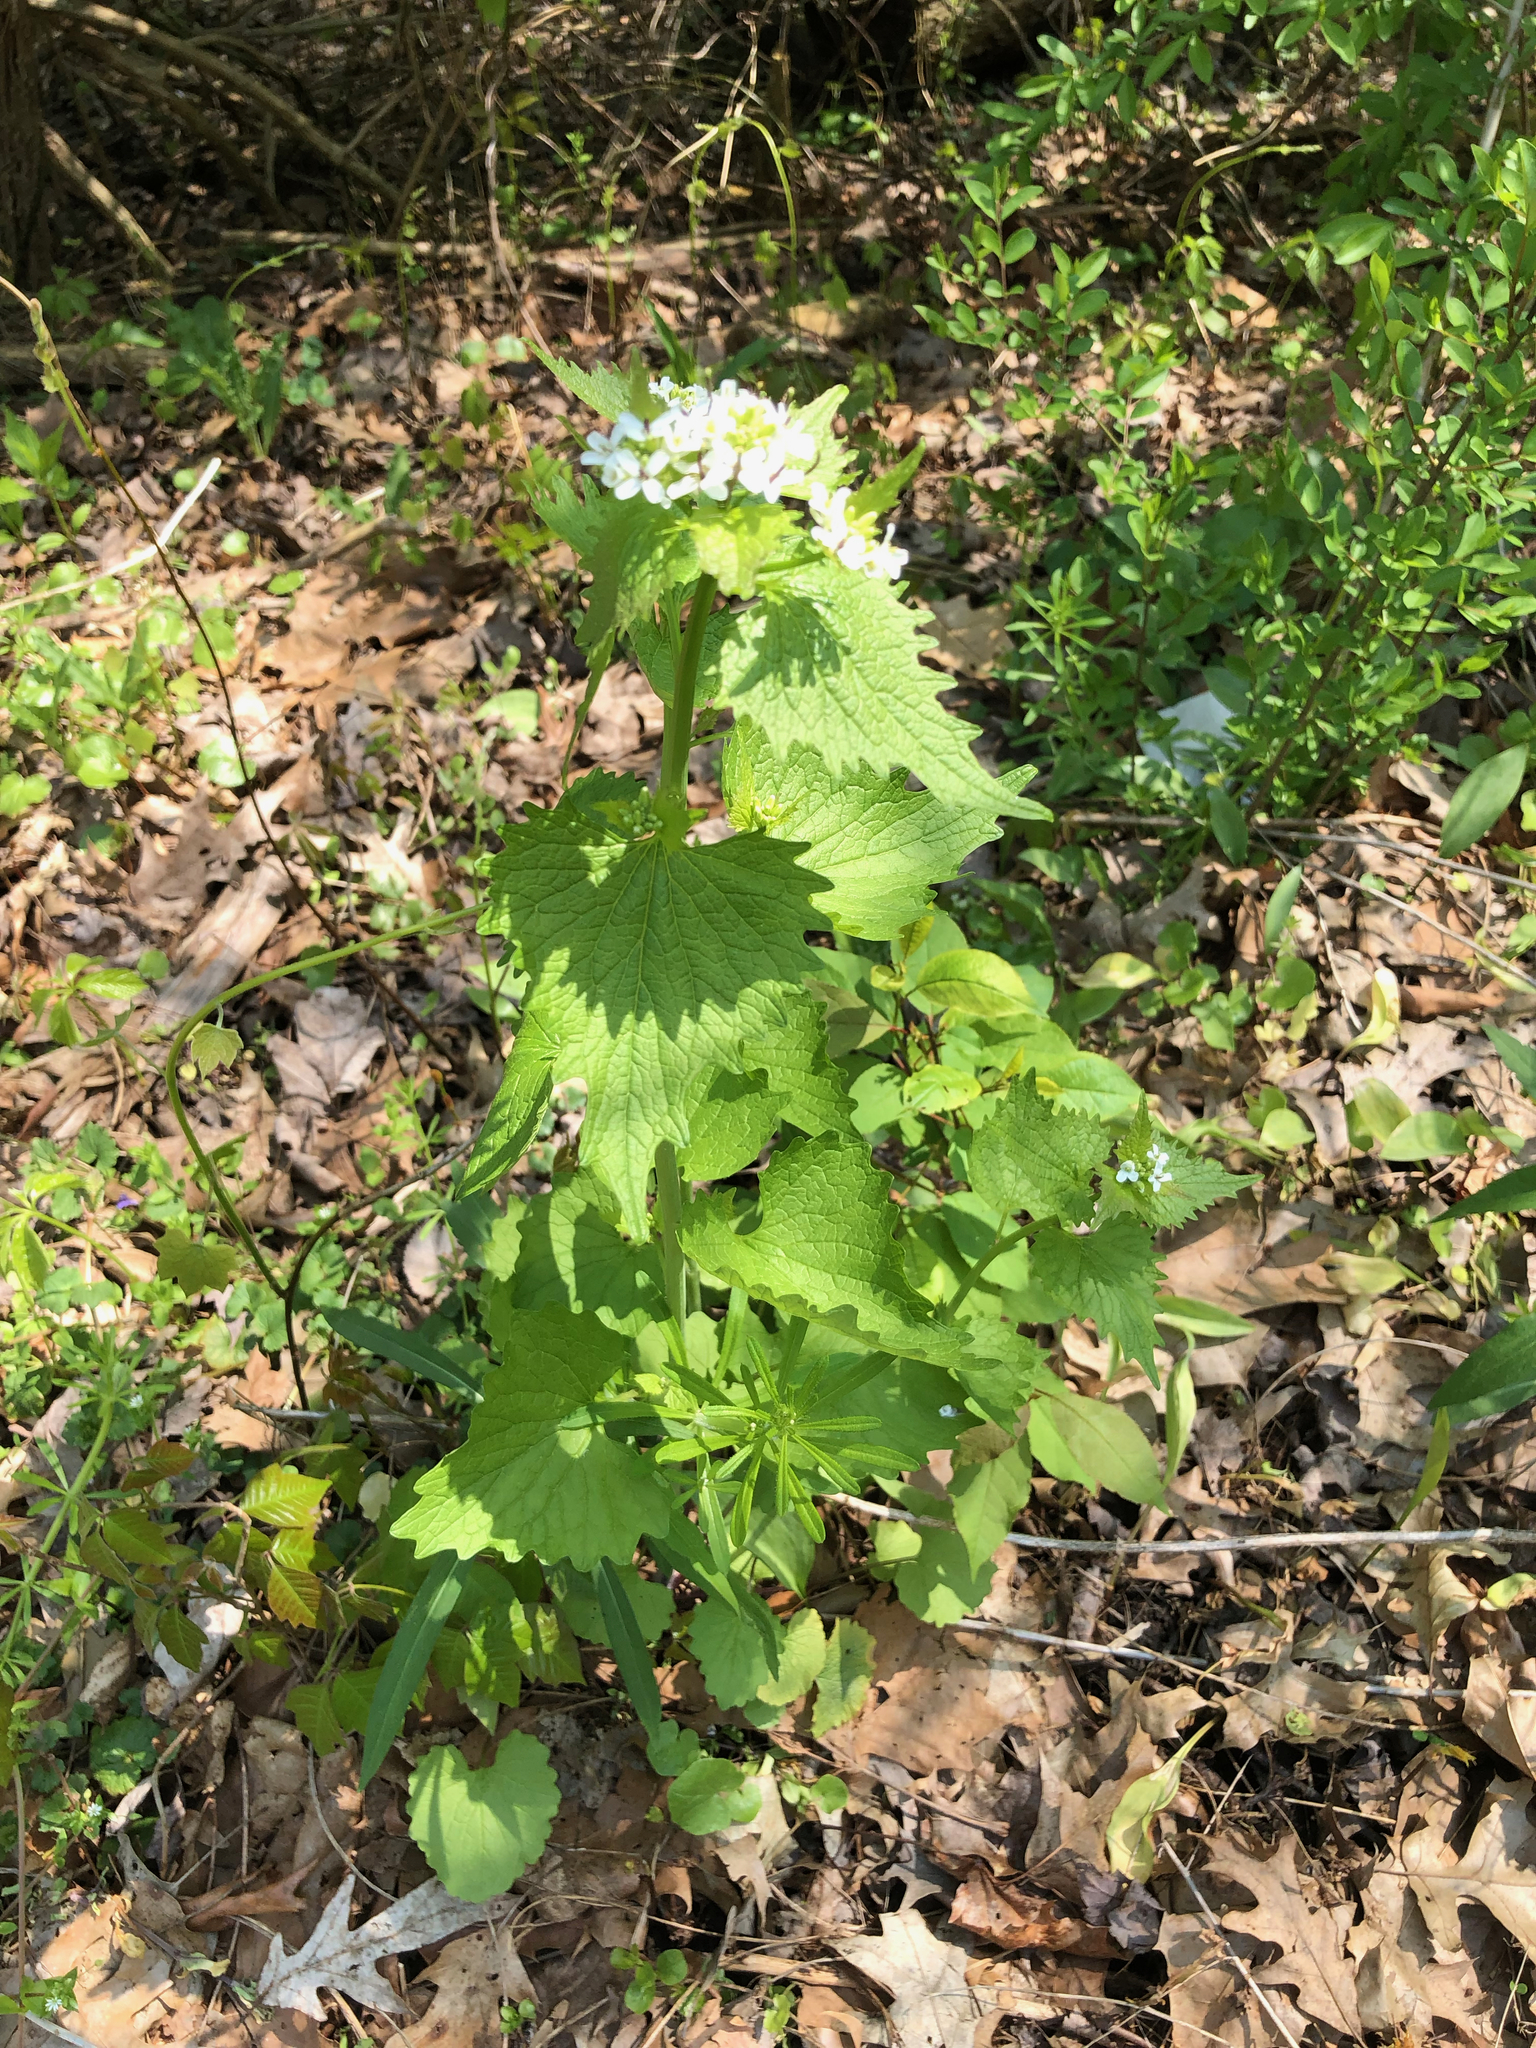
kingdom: Plantae
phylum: Tracheophyta
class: Magnoliopsida
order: Brassicales
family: Brassicaceae
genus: Alliaria
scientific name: Alliaria petiolata
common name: Garlic mustard
